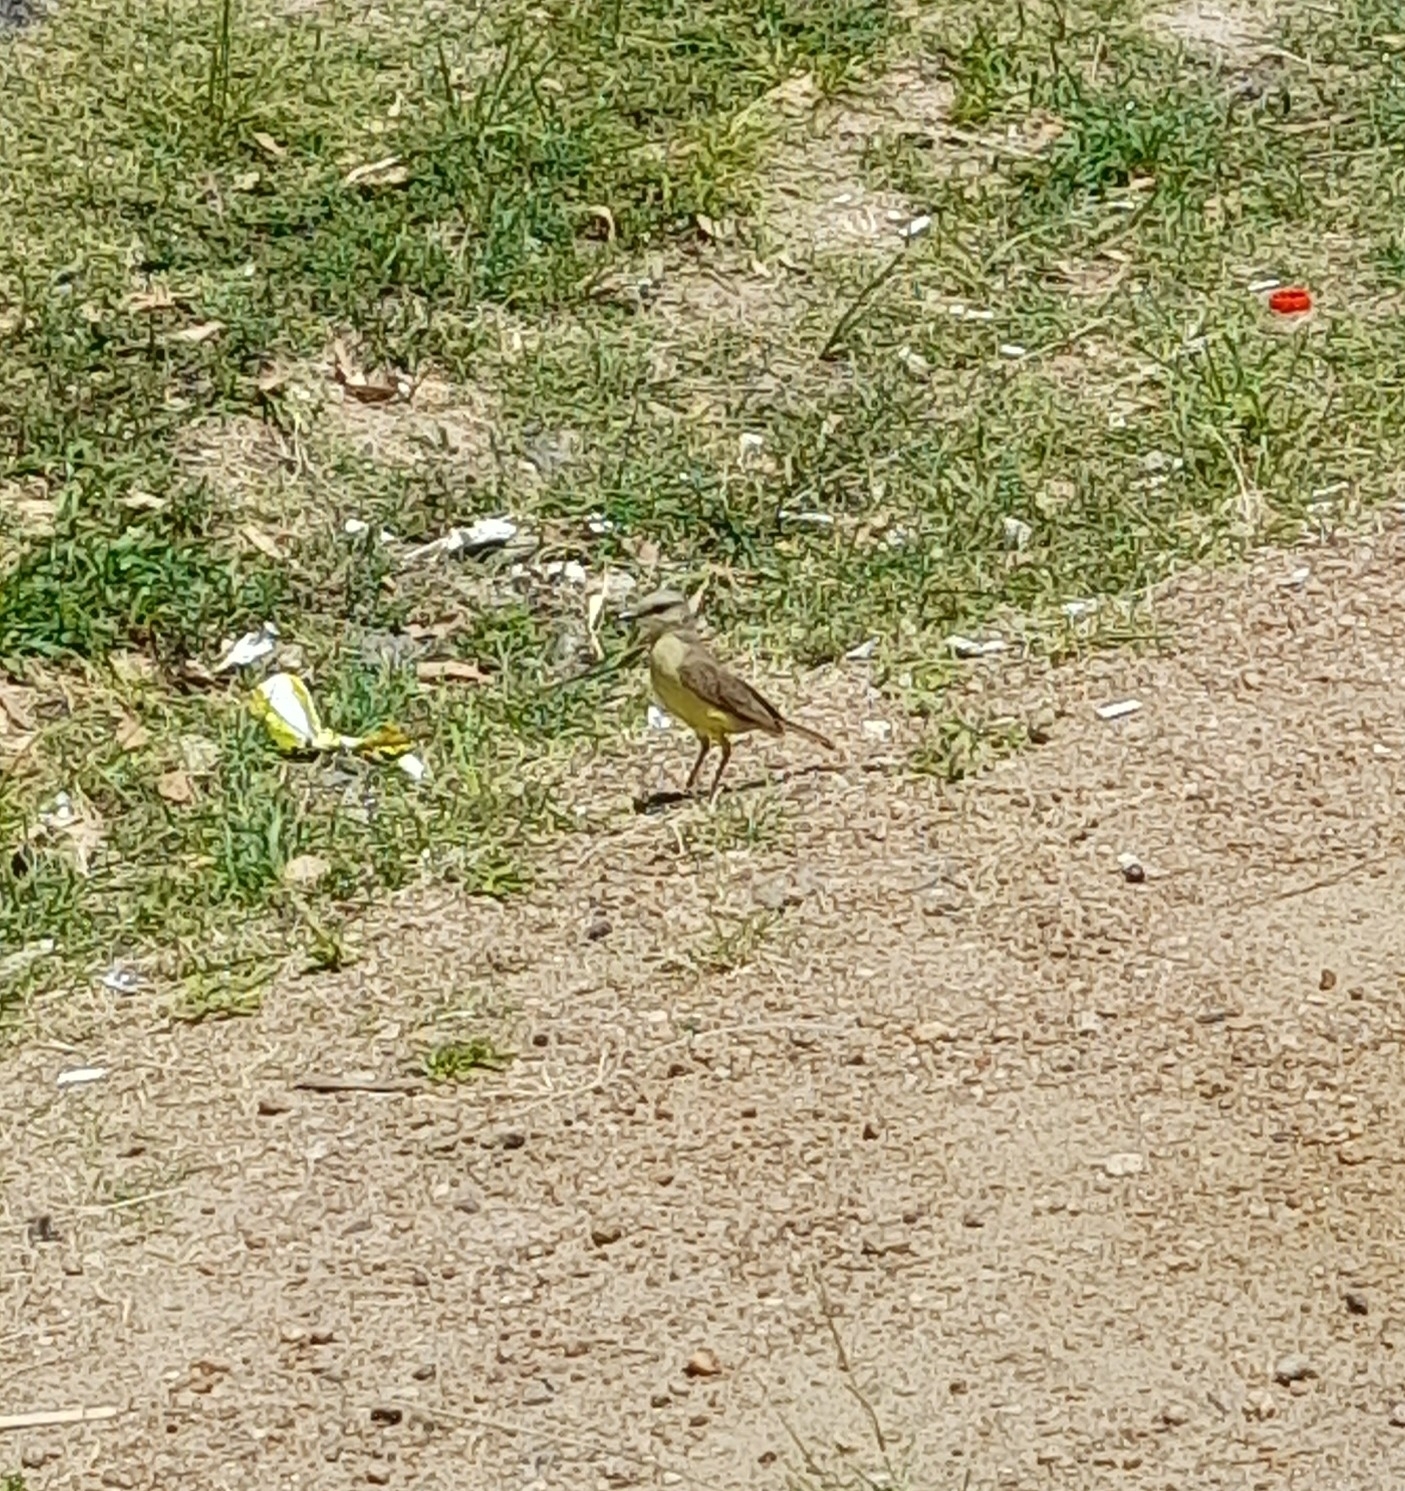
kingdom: Animalia
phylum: Chordata
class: Aves
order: Passeriformes
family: Tyrannidae
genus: Machetornis
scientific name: Machetornis rixosa
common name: Cattle tyrant
